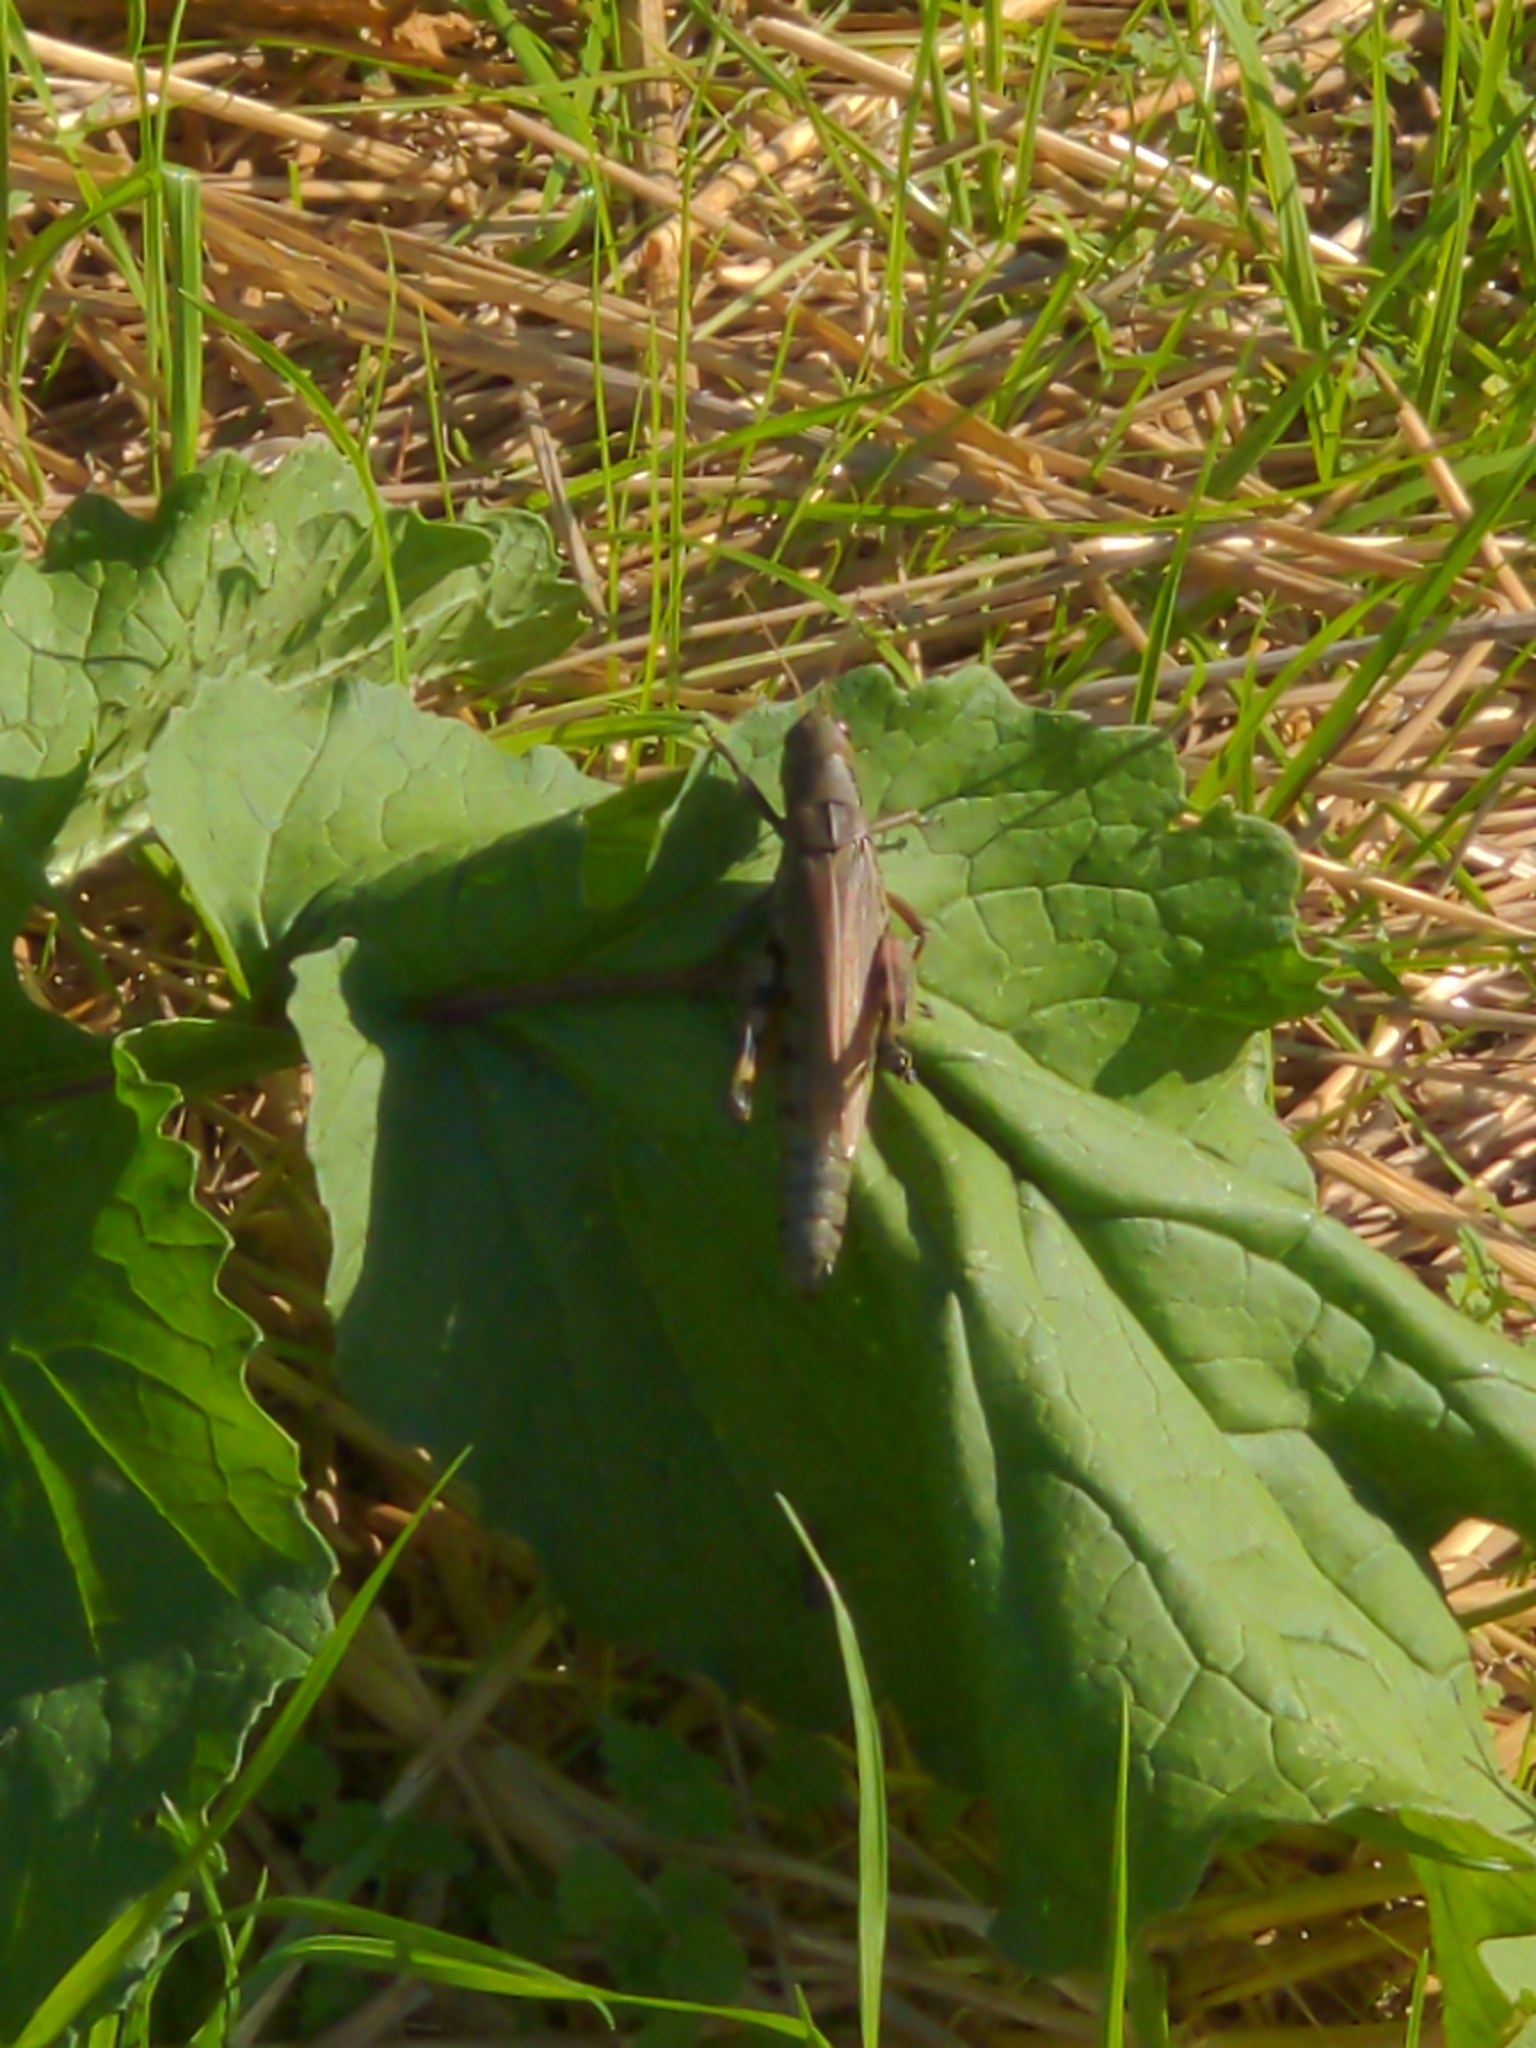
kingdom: Animalia
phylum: Arthropoda
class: Insecta
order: Orthoptera
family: Acrididae
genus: Melanoplus
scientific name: Melanoplus differentialis
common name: Differential grasshopper
